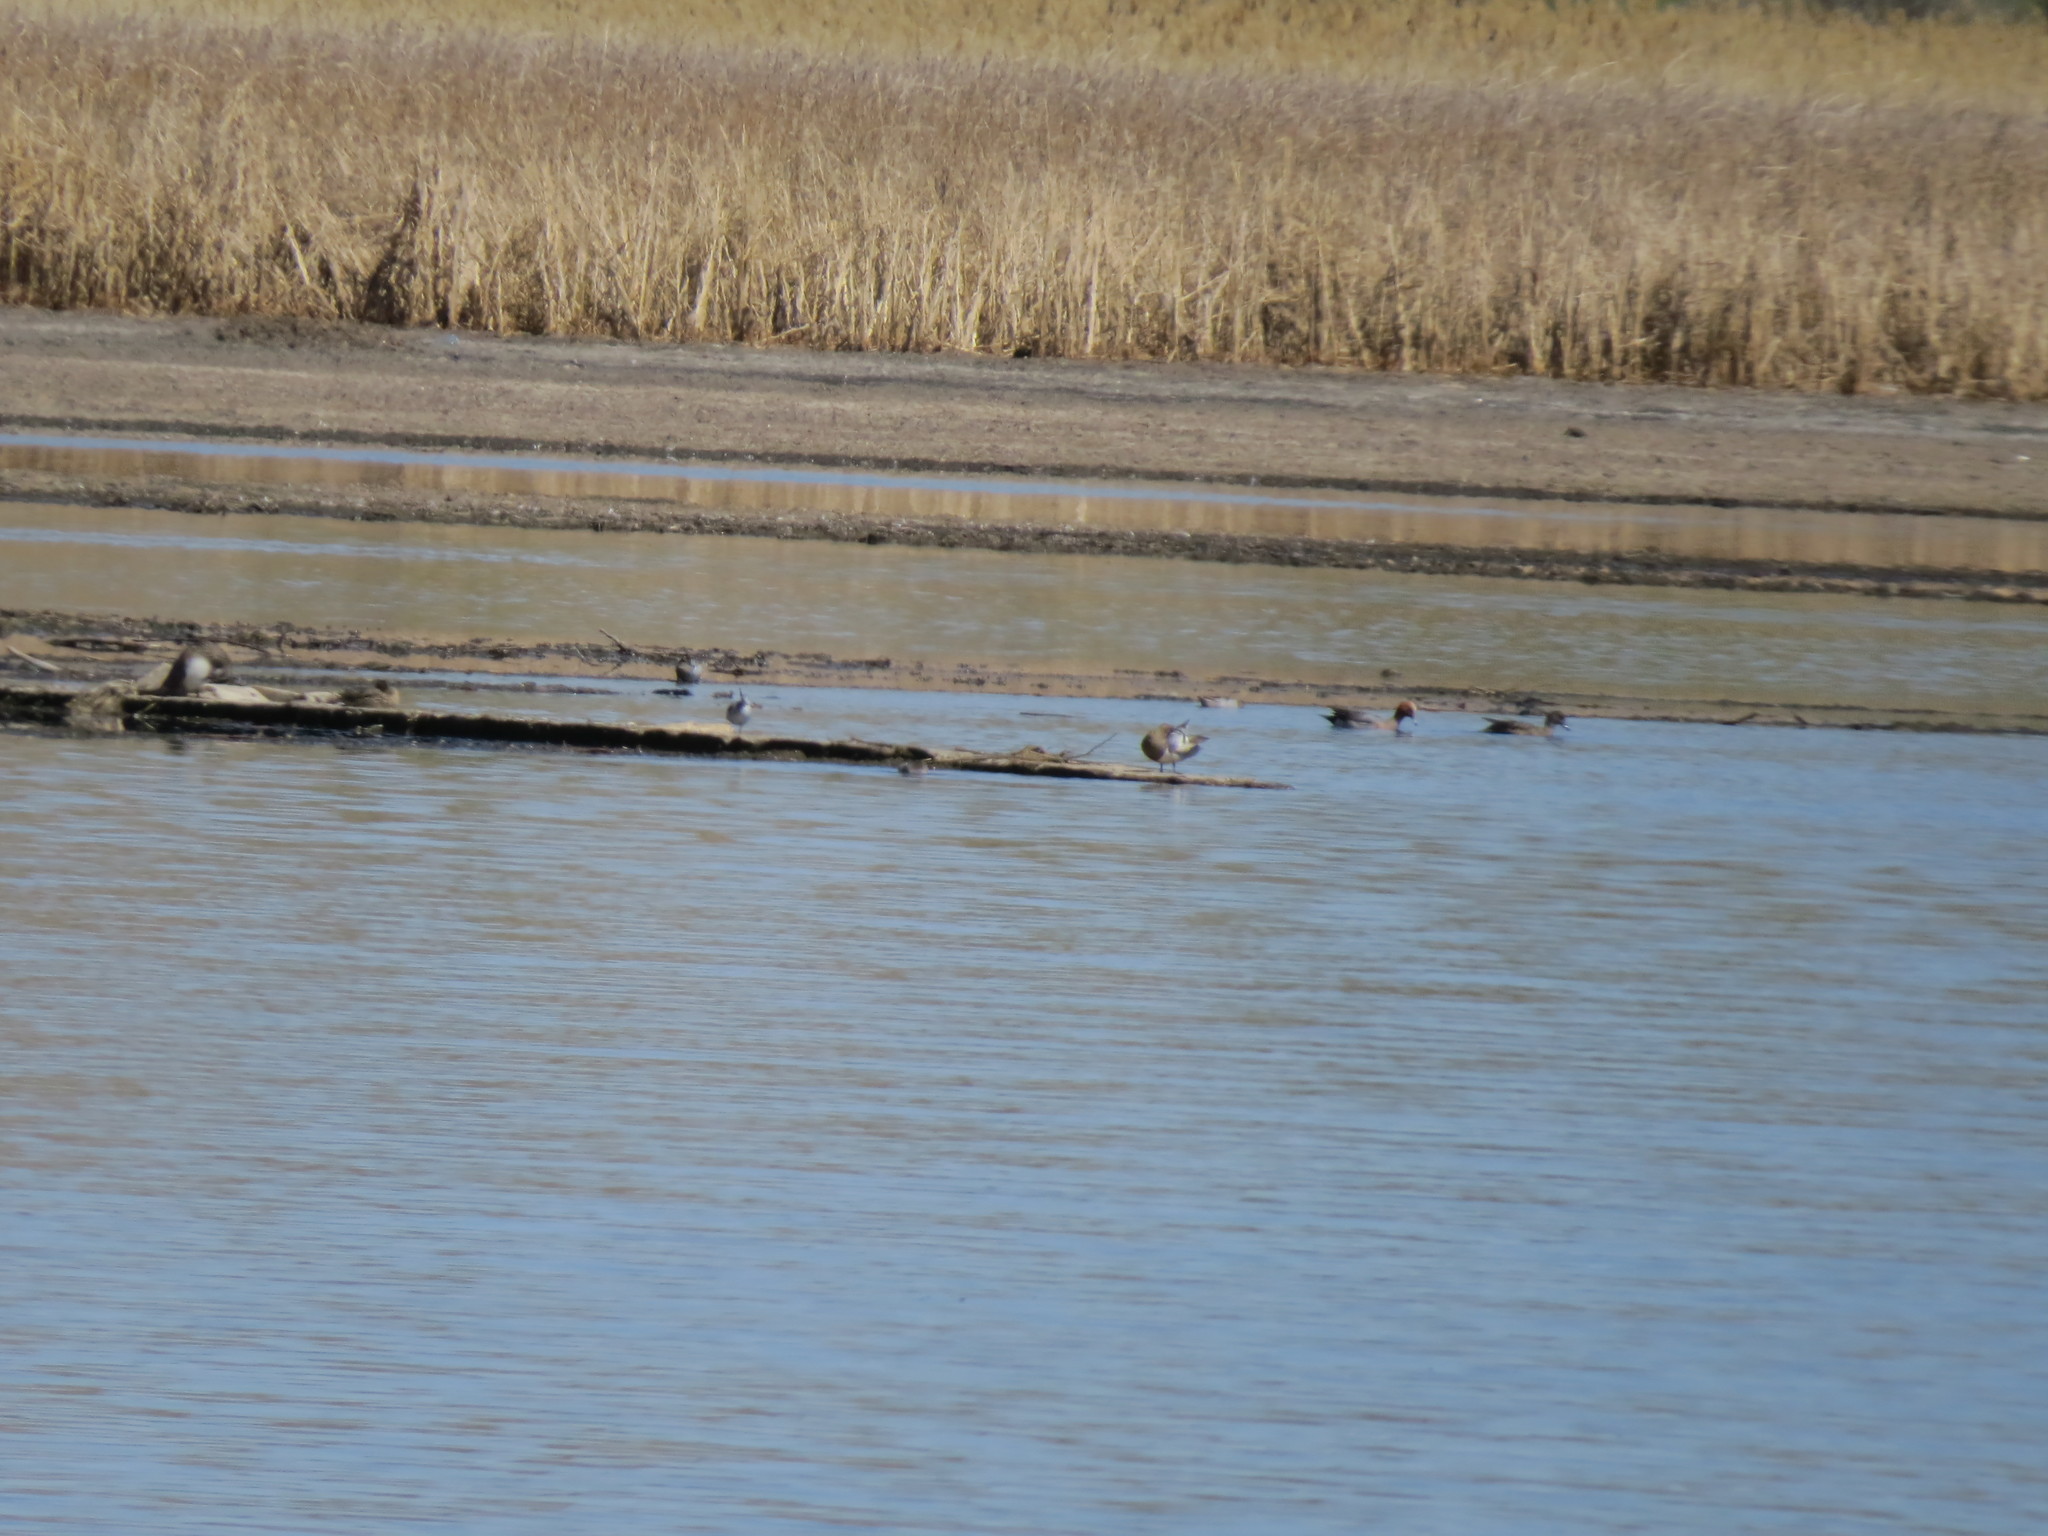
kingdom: Animalia
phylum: Chordata
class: Aves
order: Anseriformes
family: Anatidae
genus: Mareca
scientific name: Mareca penelope
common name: Eurasian wigeon
